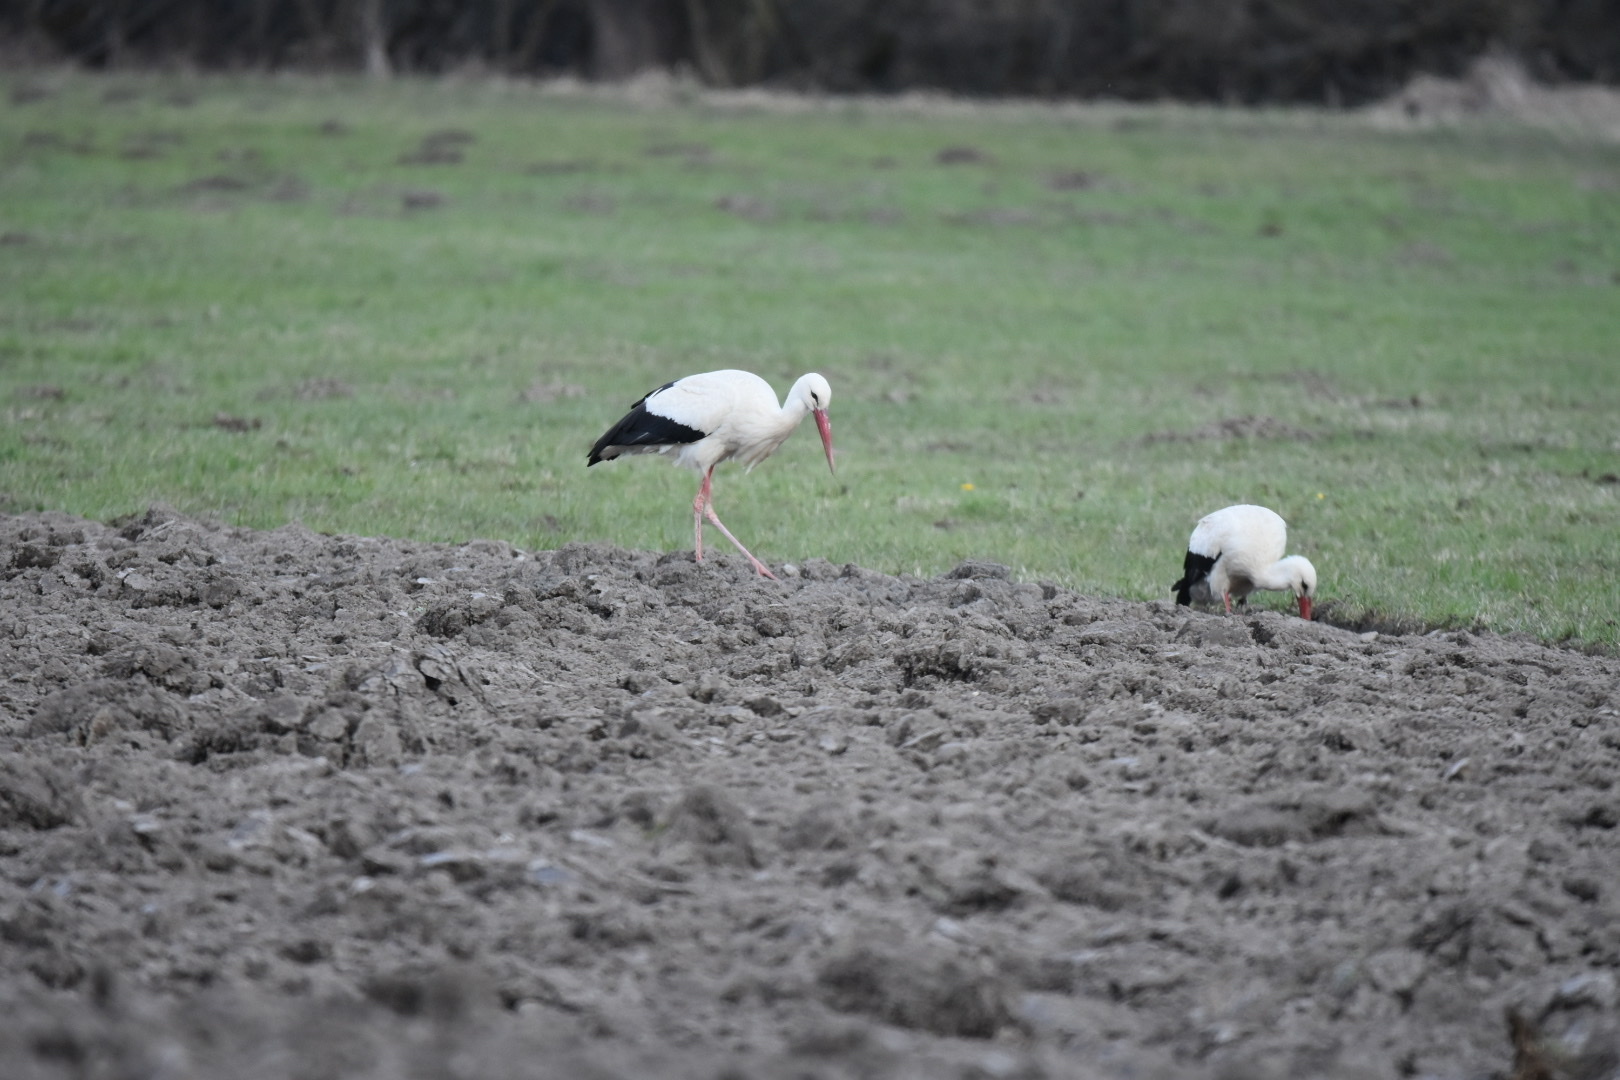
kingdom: Animalia
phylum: Chordata
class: Aves
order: Ciconiiformes
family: Ciconiidae
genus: Ciconia
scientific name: Ciconia ciconia
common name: White stork
